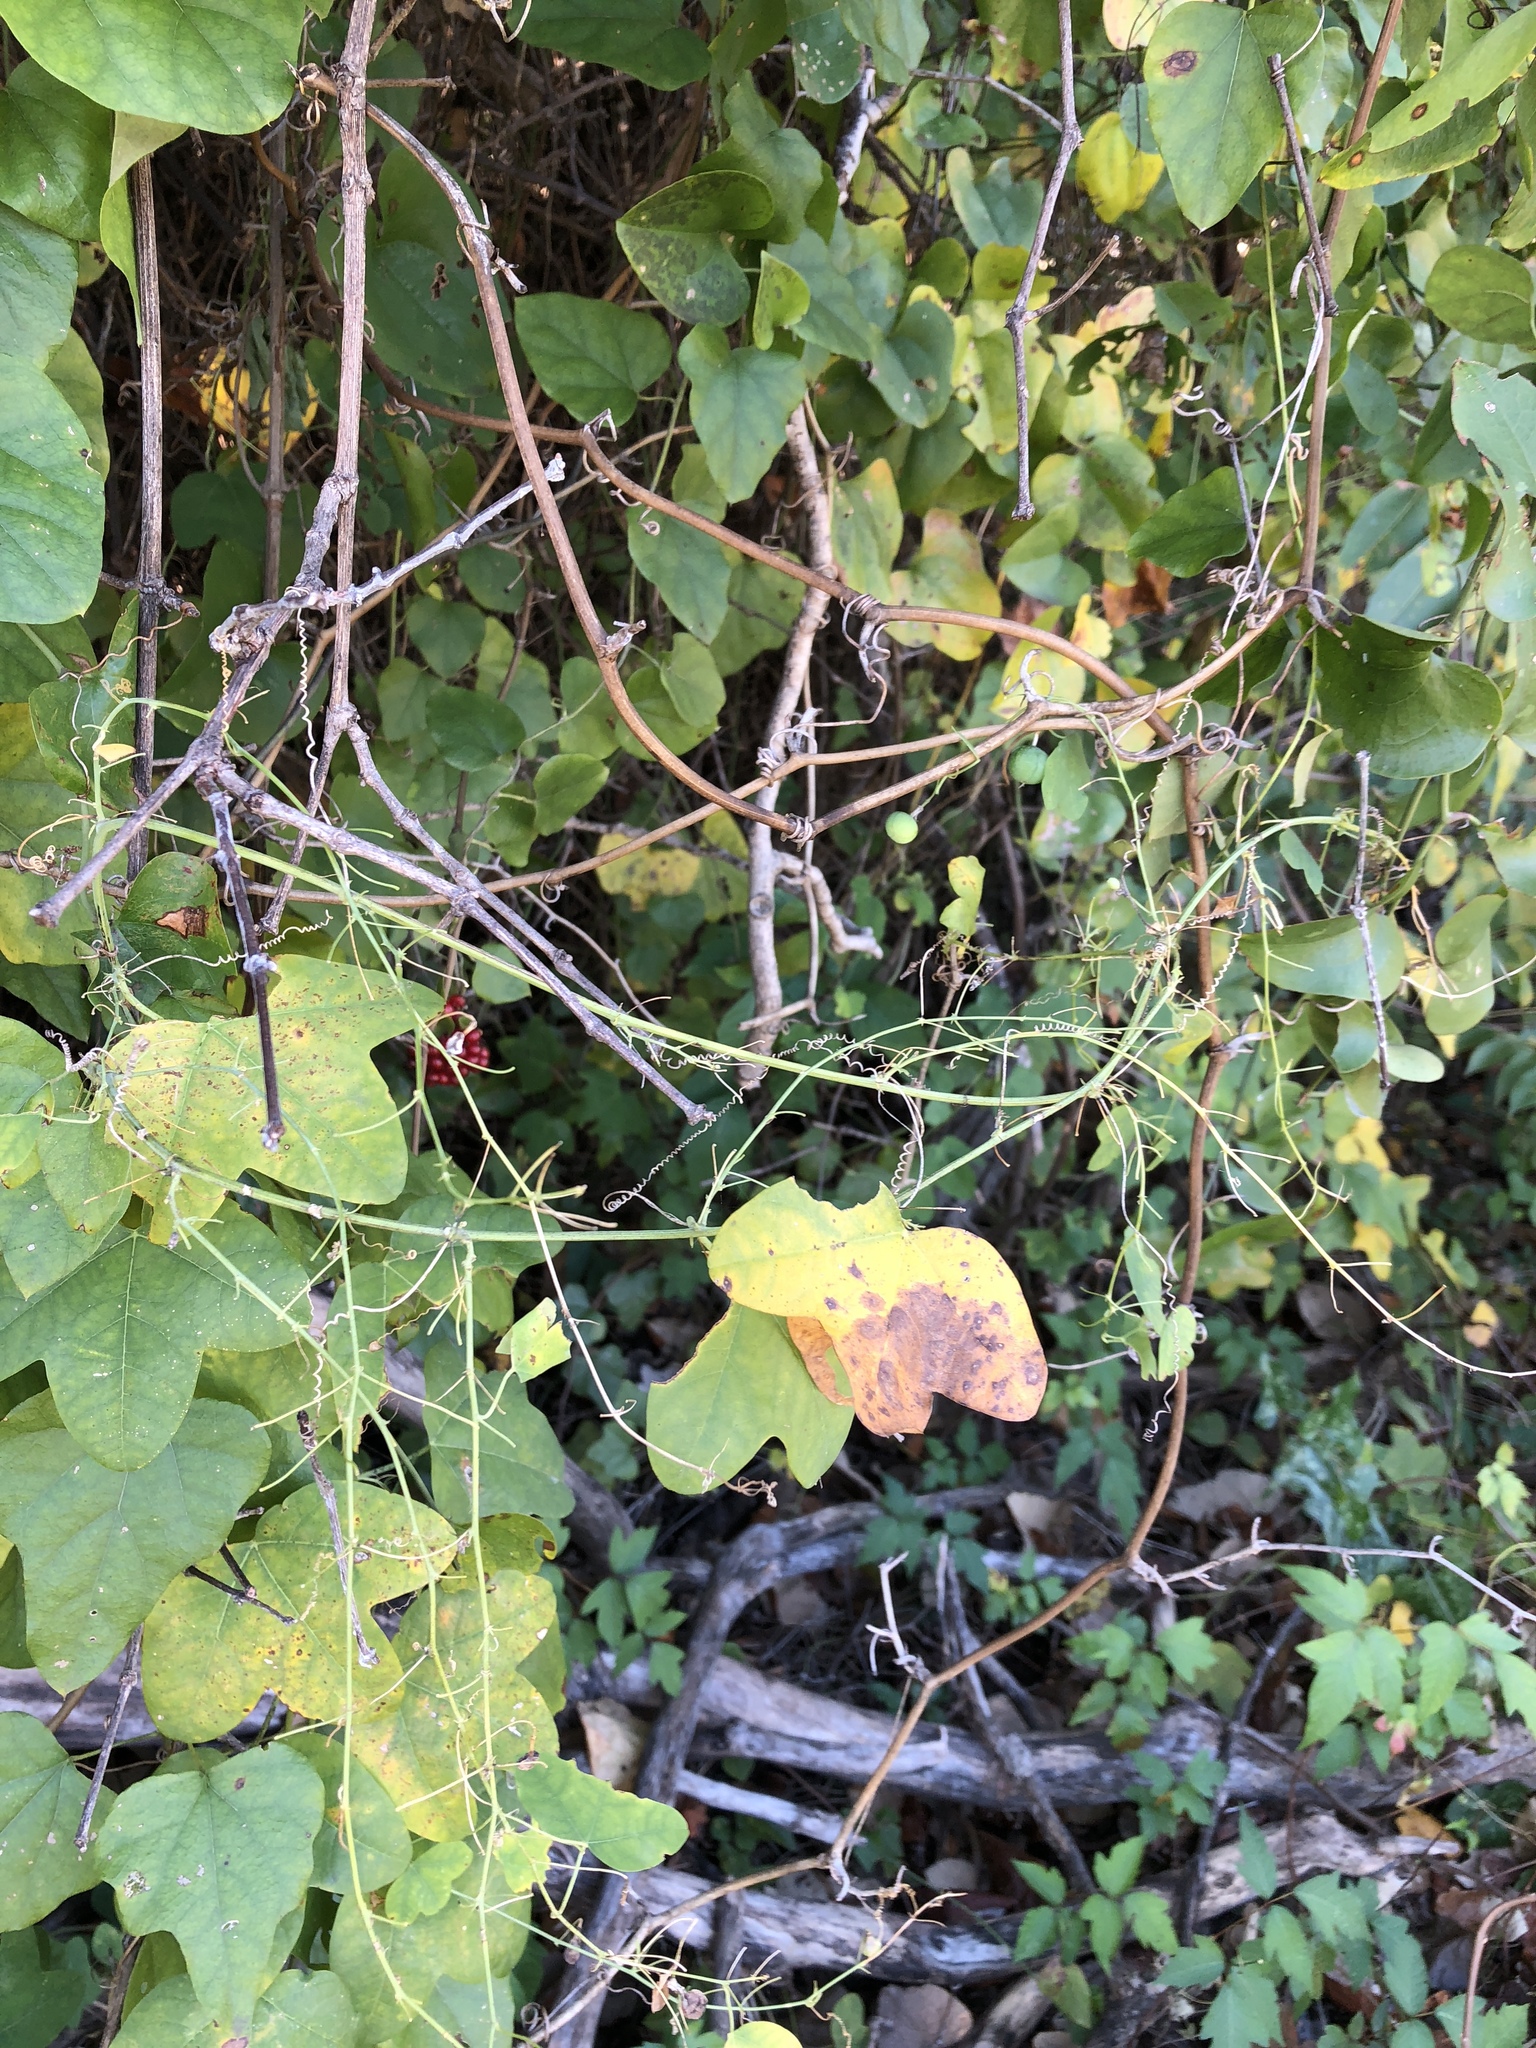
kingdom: Plantae
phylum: Tracheophyta
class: Magnoliopsida
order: Malpighiales
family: Passifloraceae
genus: Passiflora
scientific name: Passiflora lutea
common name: Yellow passionflower
